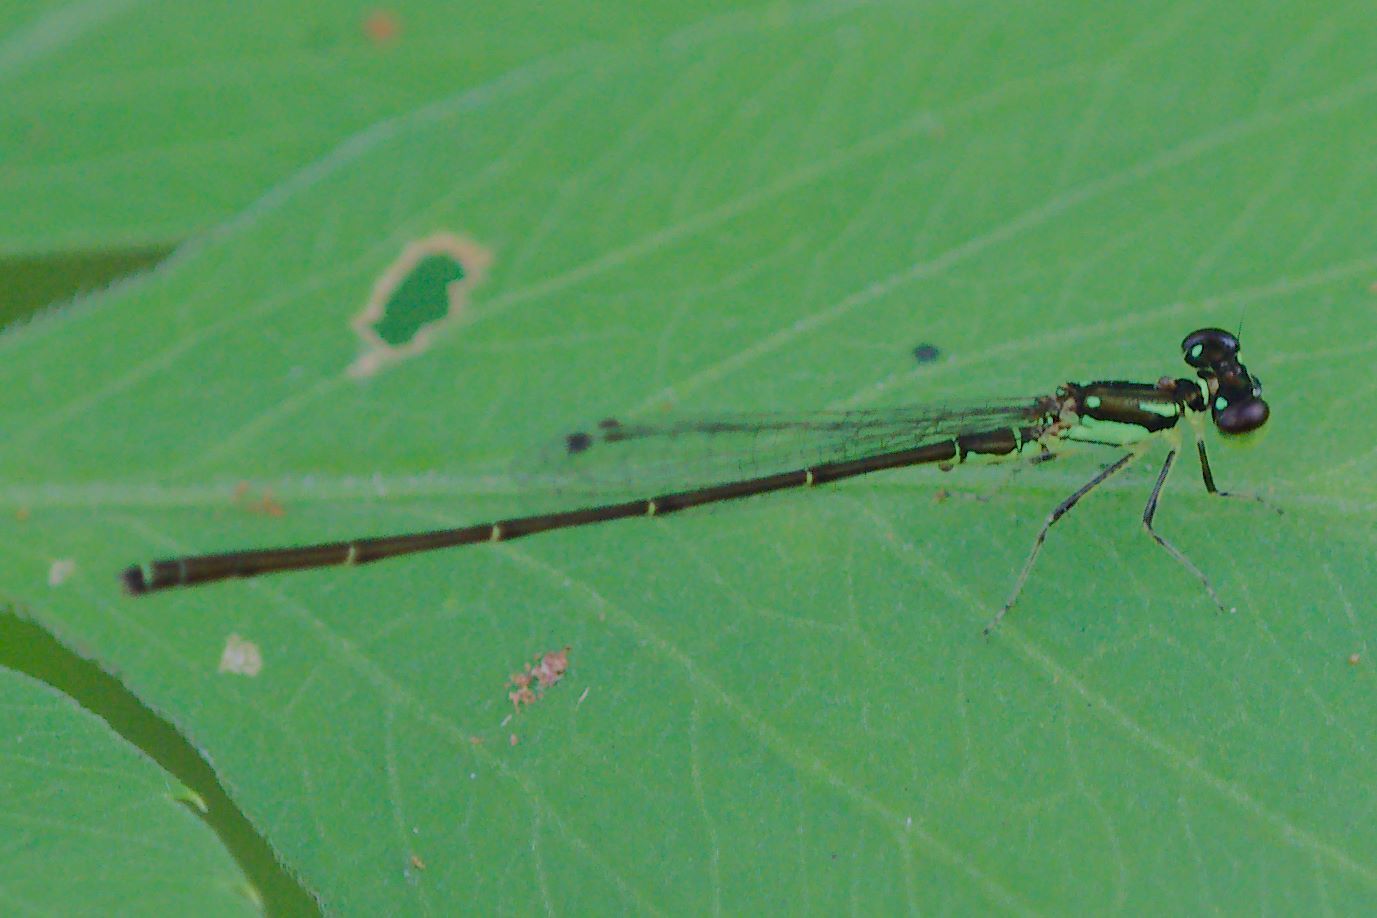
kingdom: Animalia
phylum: Arthropoda
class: Insecta
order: Odonata
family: Coenagrionidae
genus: Ischnura
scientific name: Ischnura posita
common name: Fragile forktail
